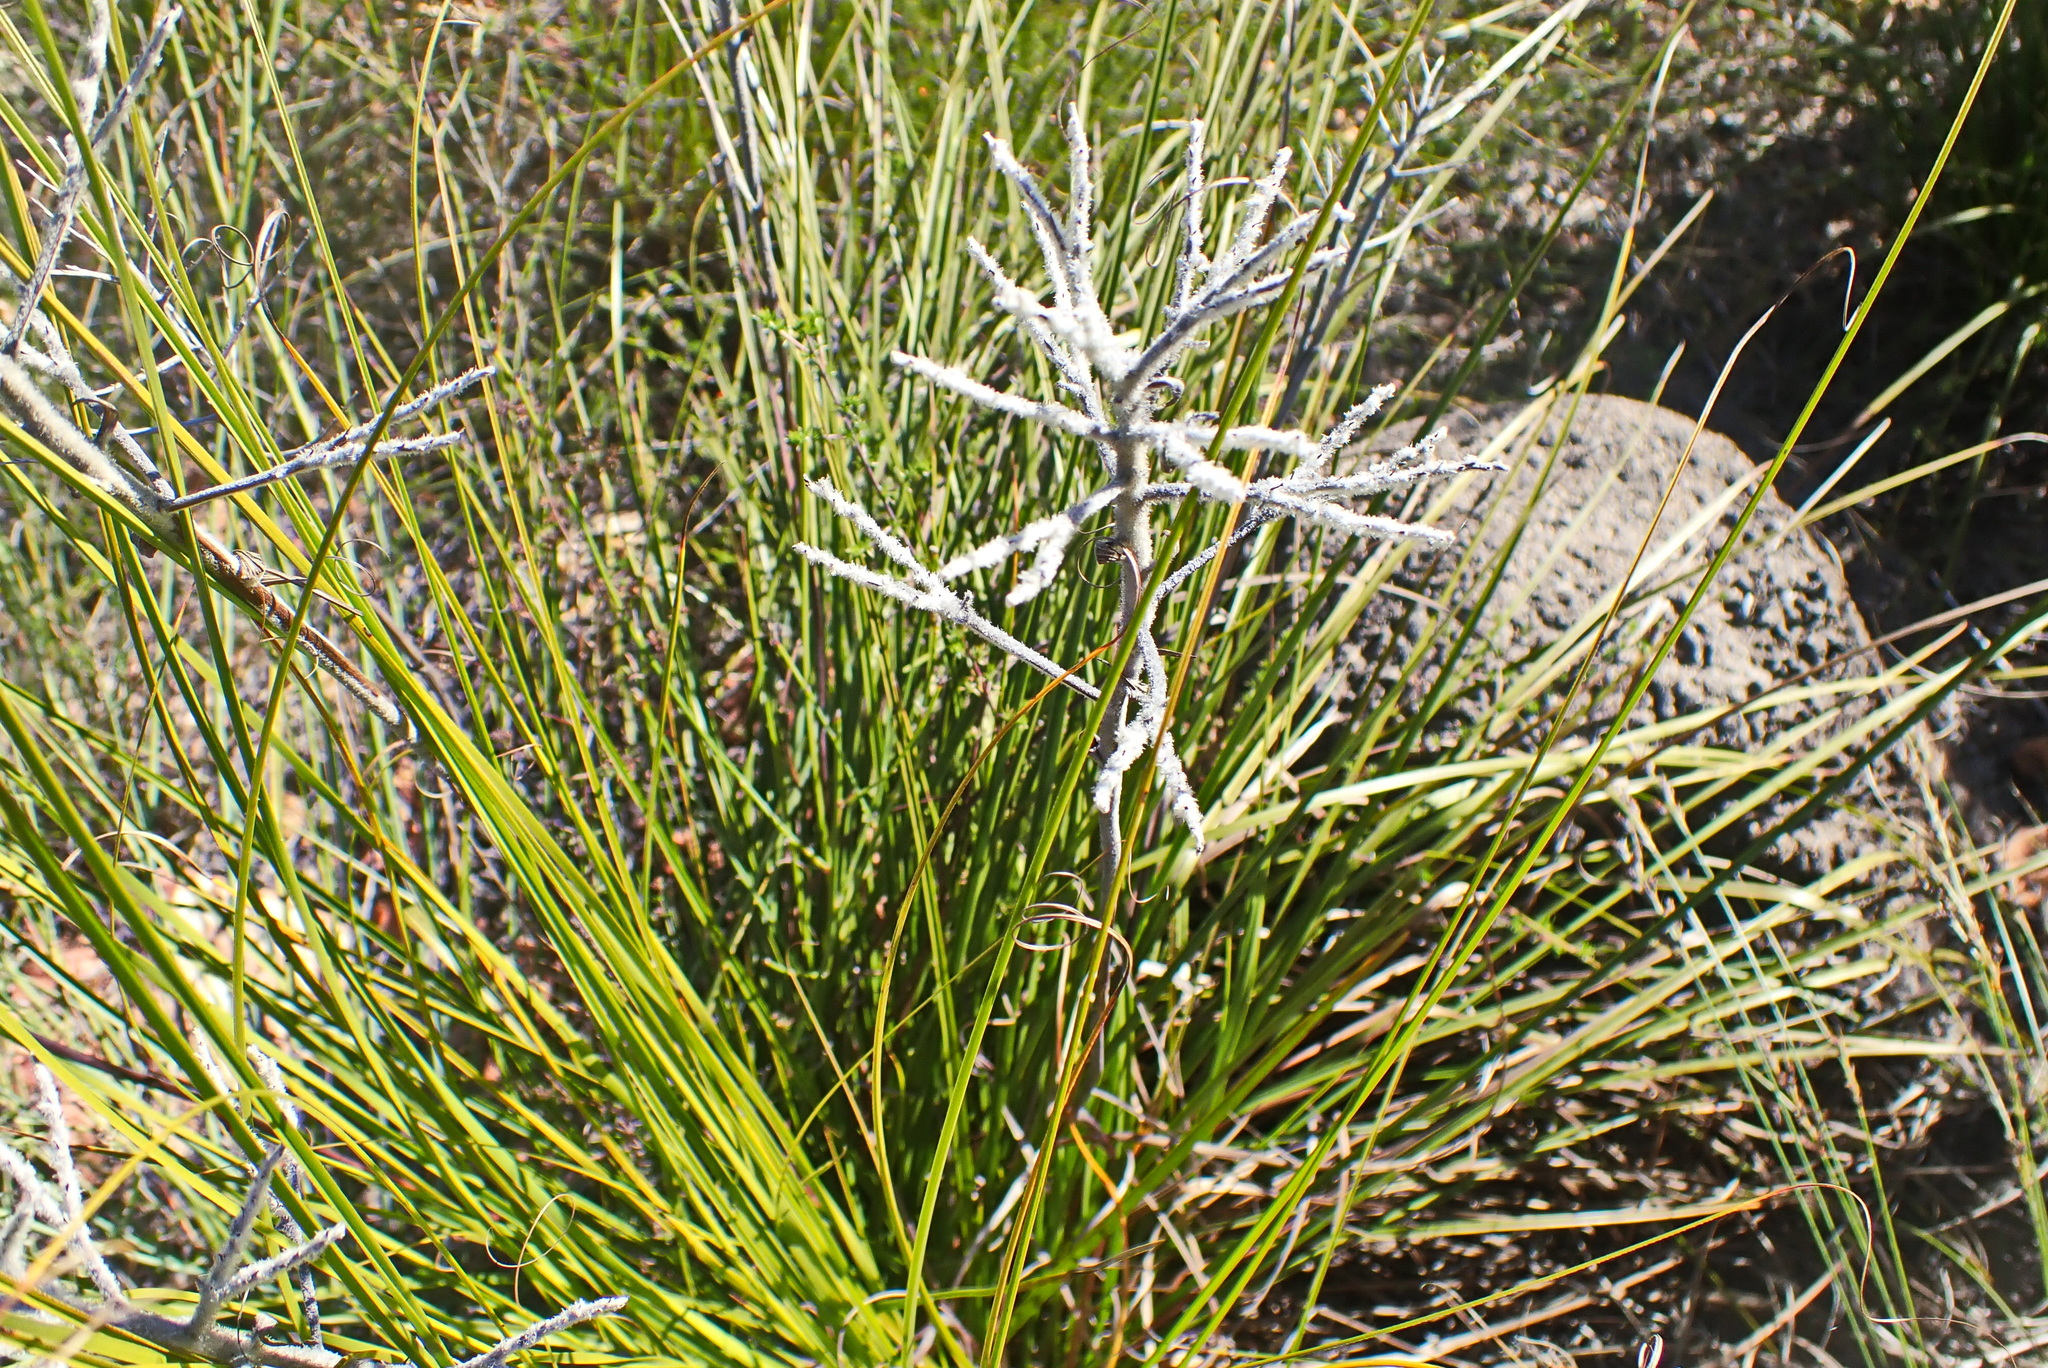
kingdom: Plantae
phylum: Tracheophyta
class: Liliopsida
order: Asparagales
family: Lanariaceae
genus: Lanaria
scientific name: Lanaria lanata
